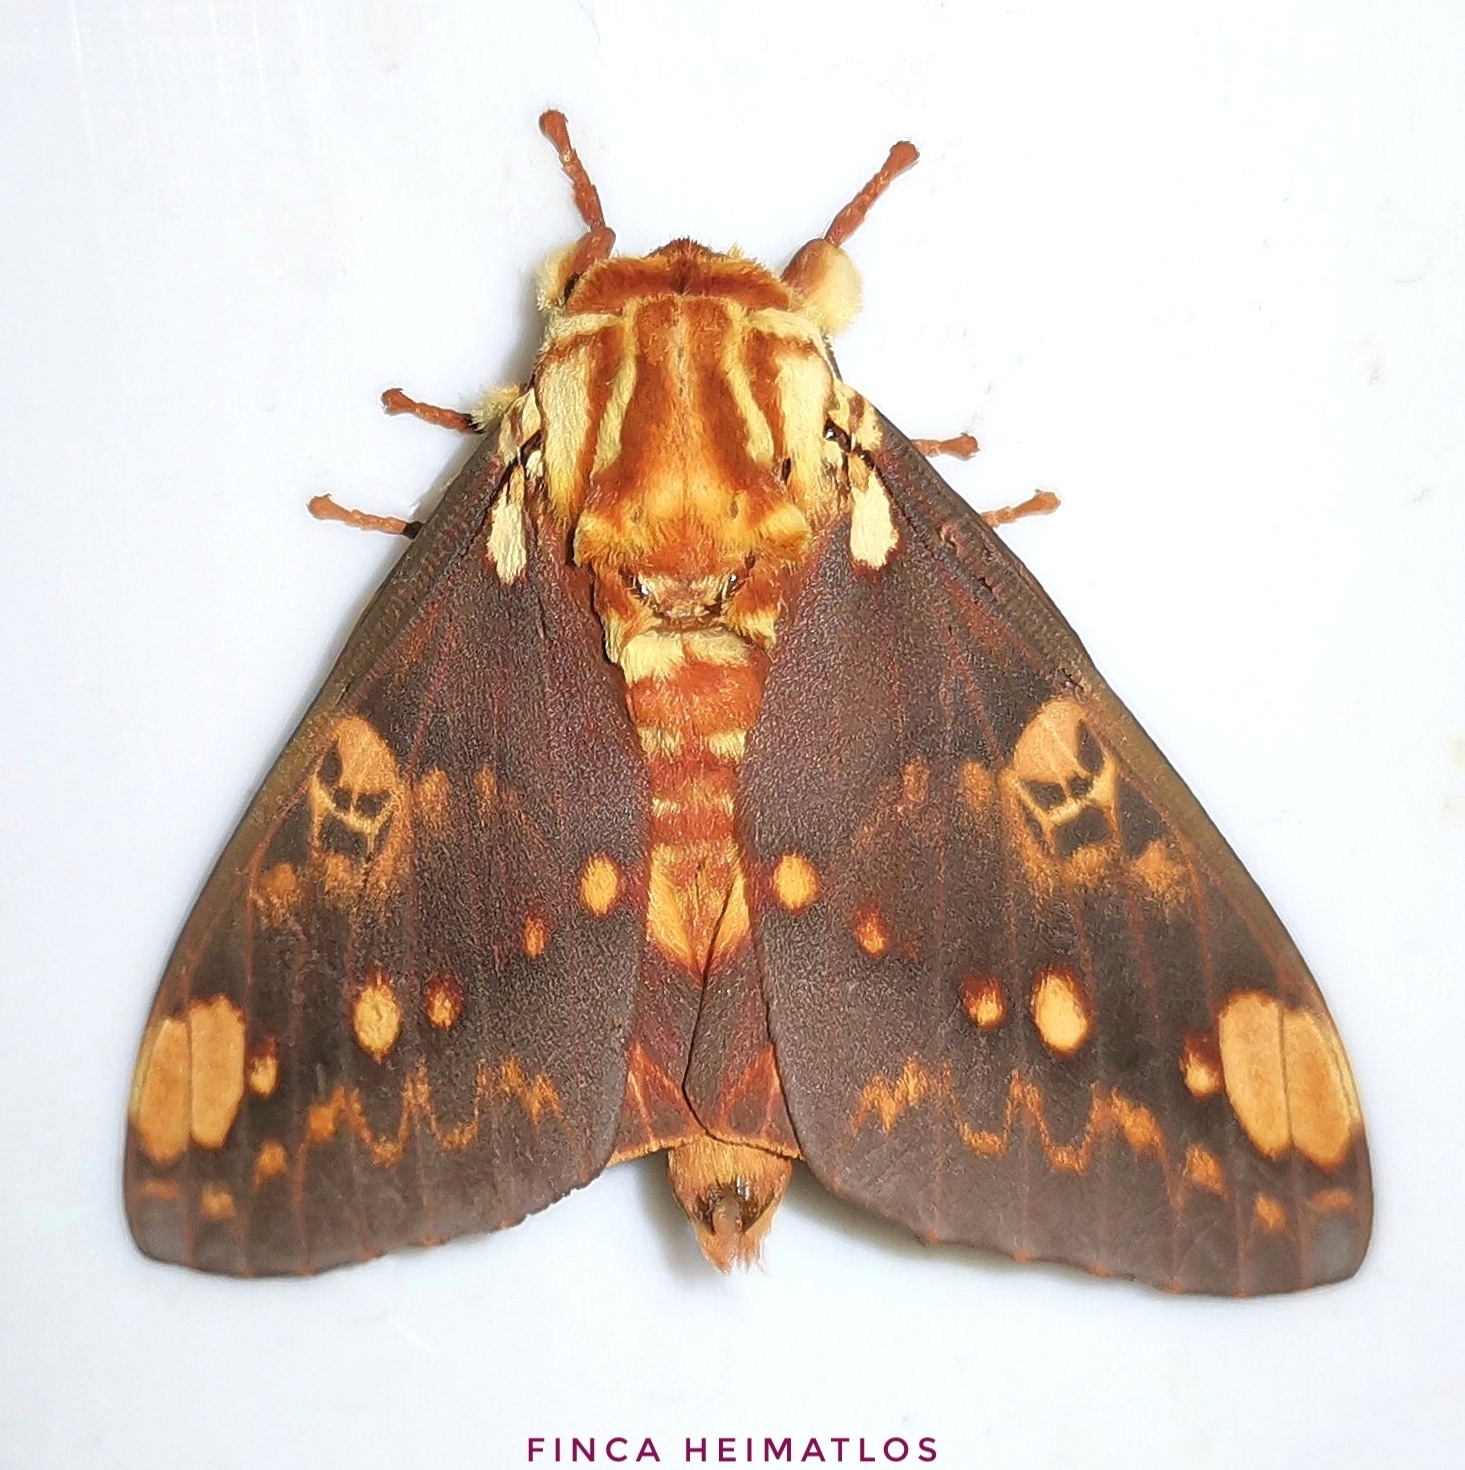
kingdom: Animalia
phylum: Arthropoda
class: Insecta
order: Lepidoptera
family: Saturniidae
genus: Citheronia
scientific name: Citheronia hamifera
